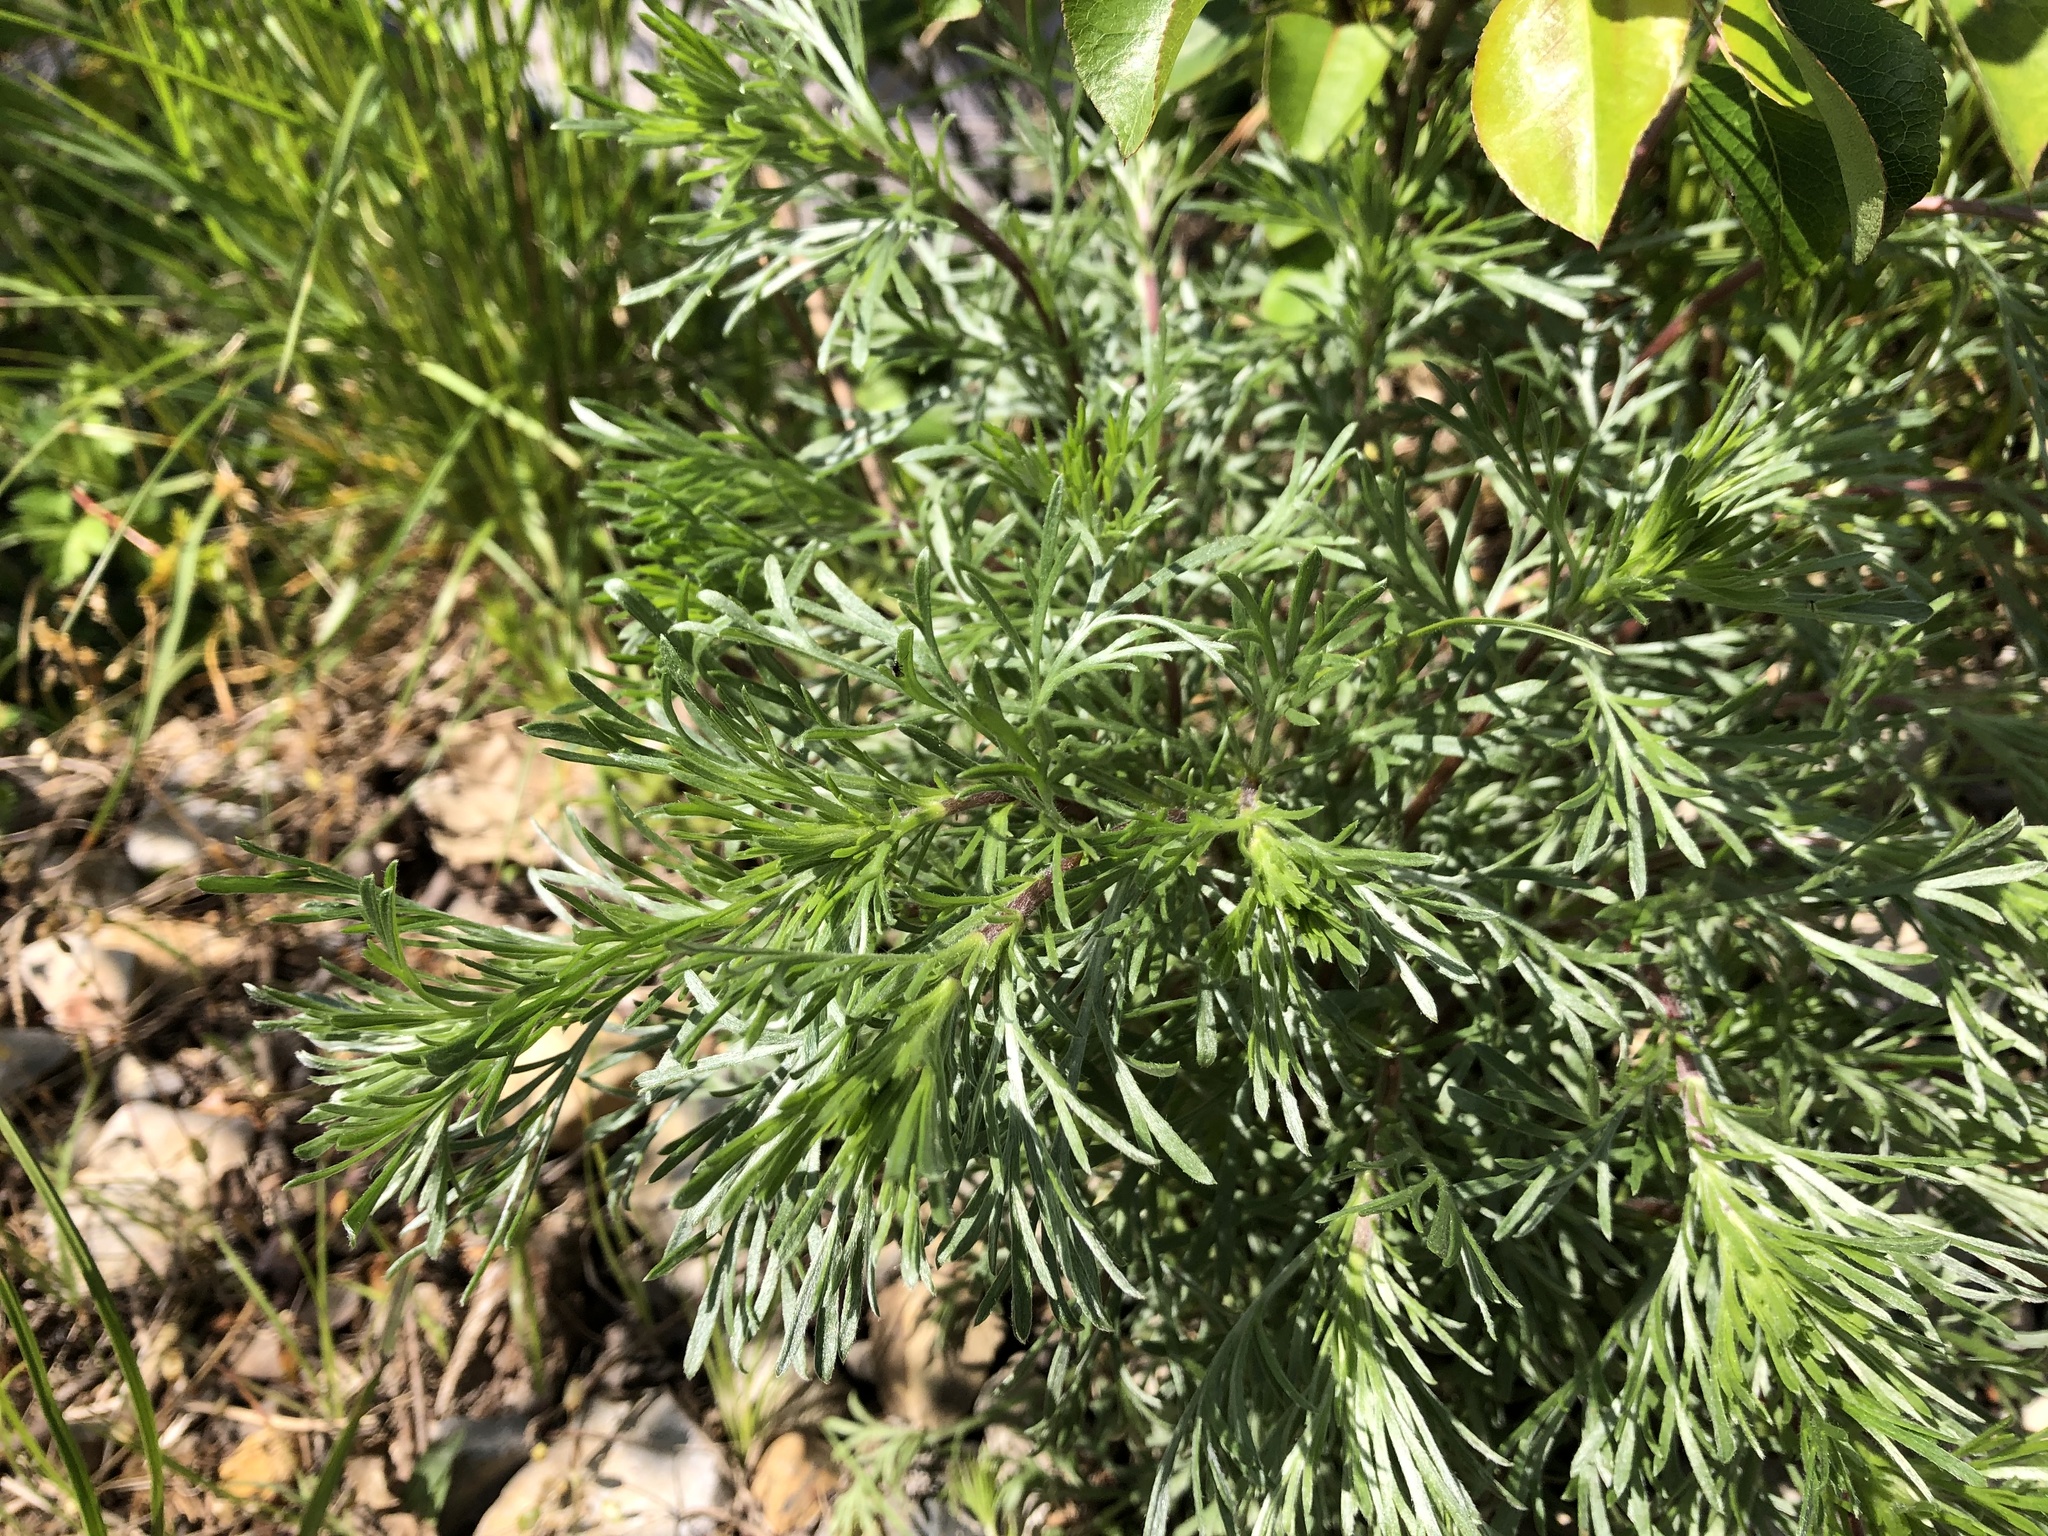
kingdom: Plantae
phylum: Tracheophyta
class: Magnoliopsida
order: Asterales
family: Asteraceae
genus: Artemisia
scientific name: Artemisia campestris
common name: Field wormwood
